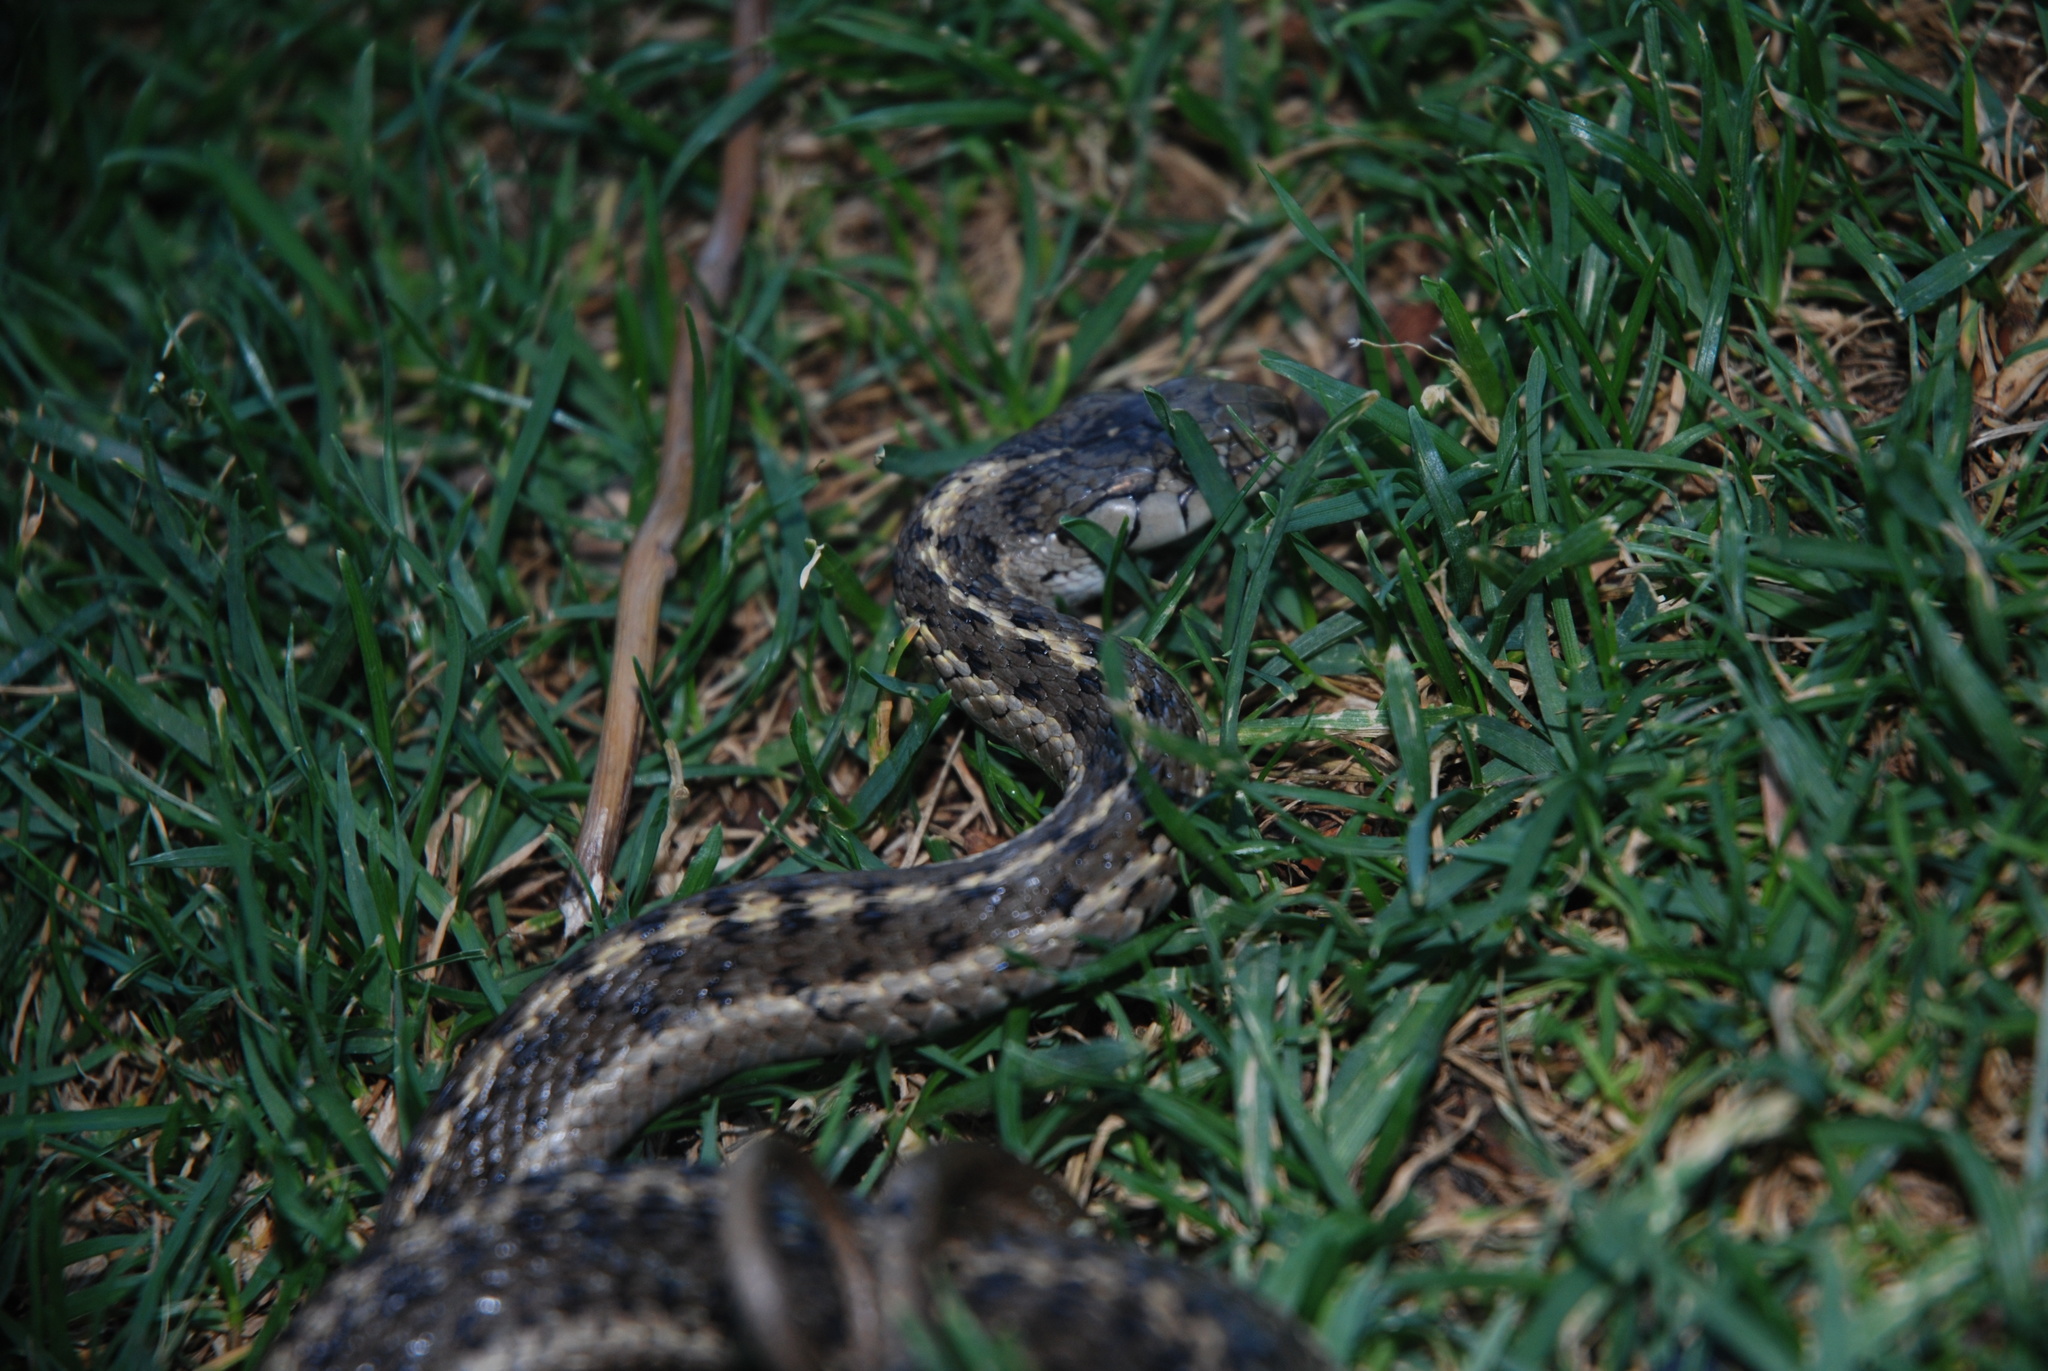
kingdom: Animalia
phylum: Chordata
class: Squamata
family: Colubridae
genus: Thamnophis
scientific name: Thamnophis elegans
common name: Western terrestrial garter snake
